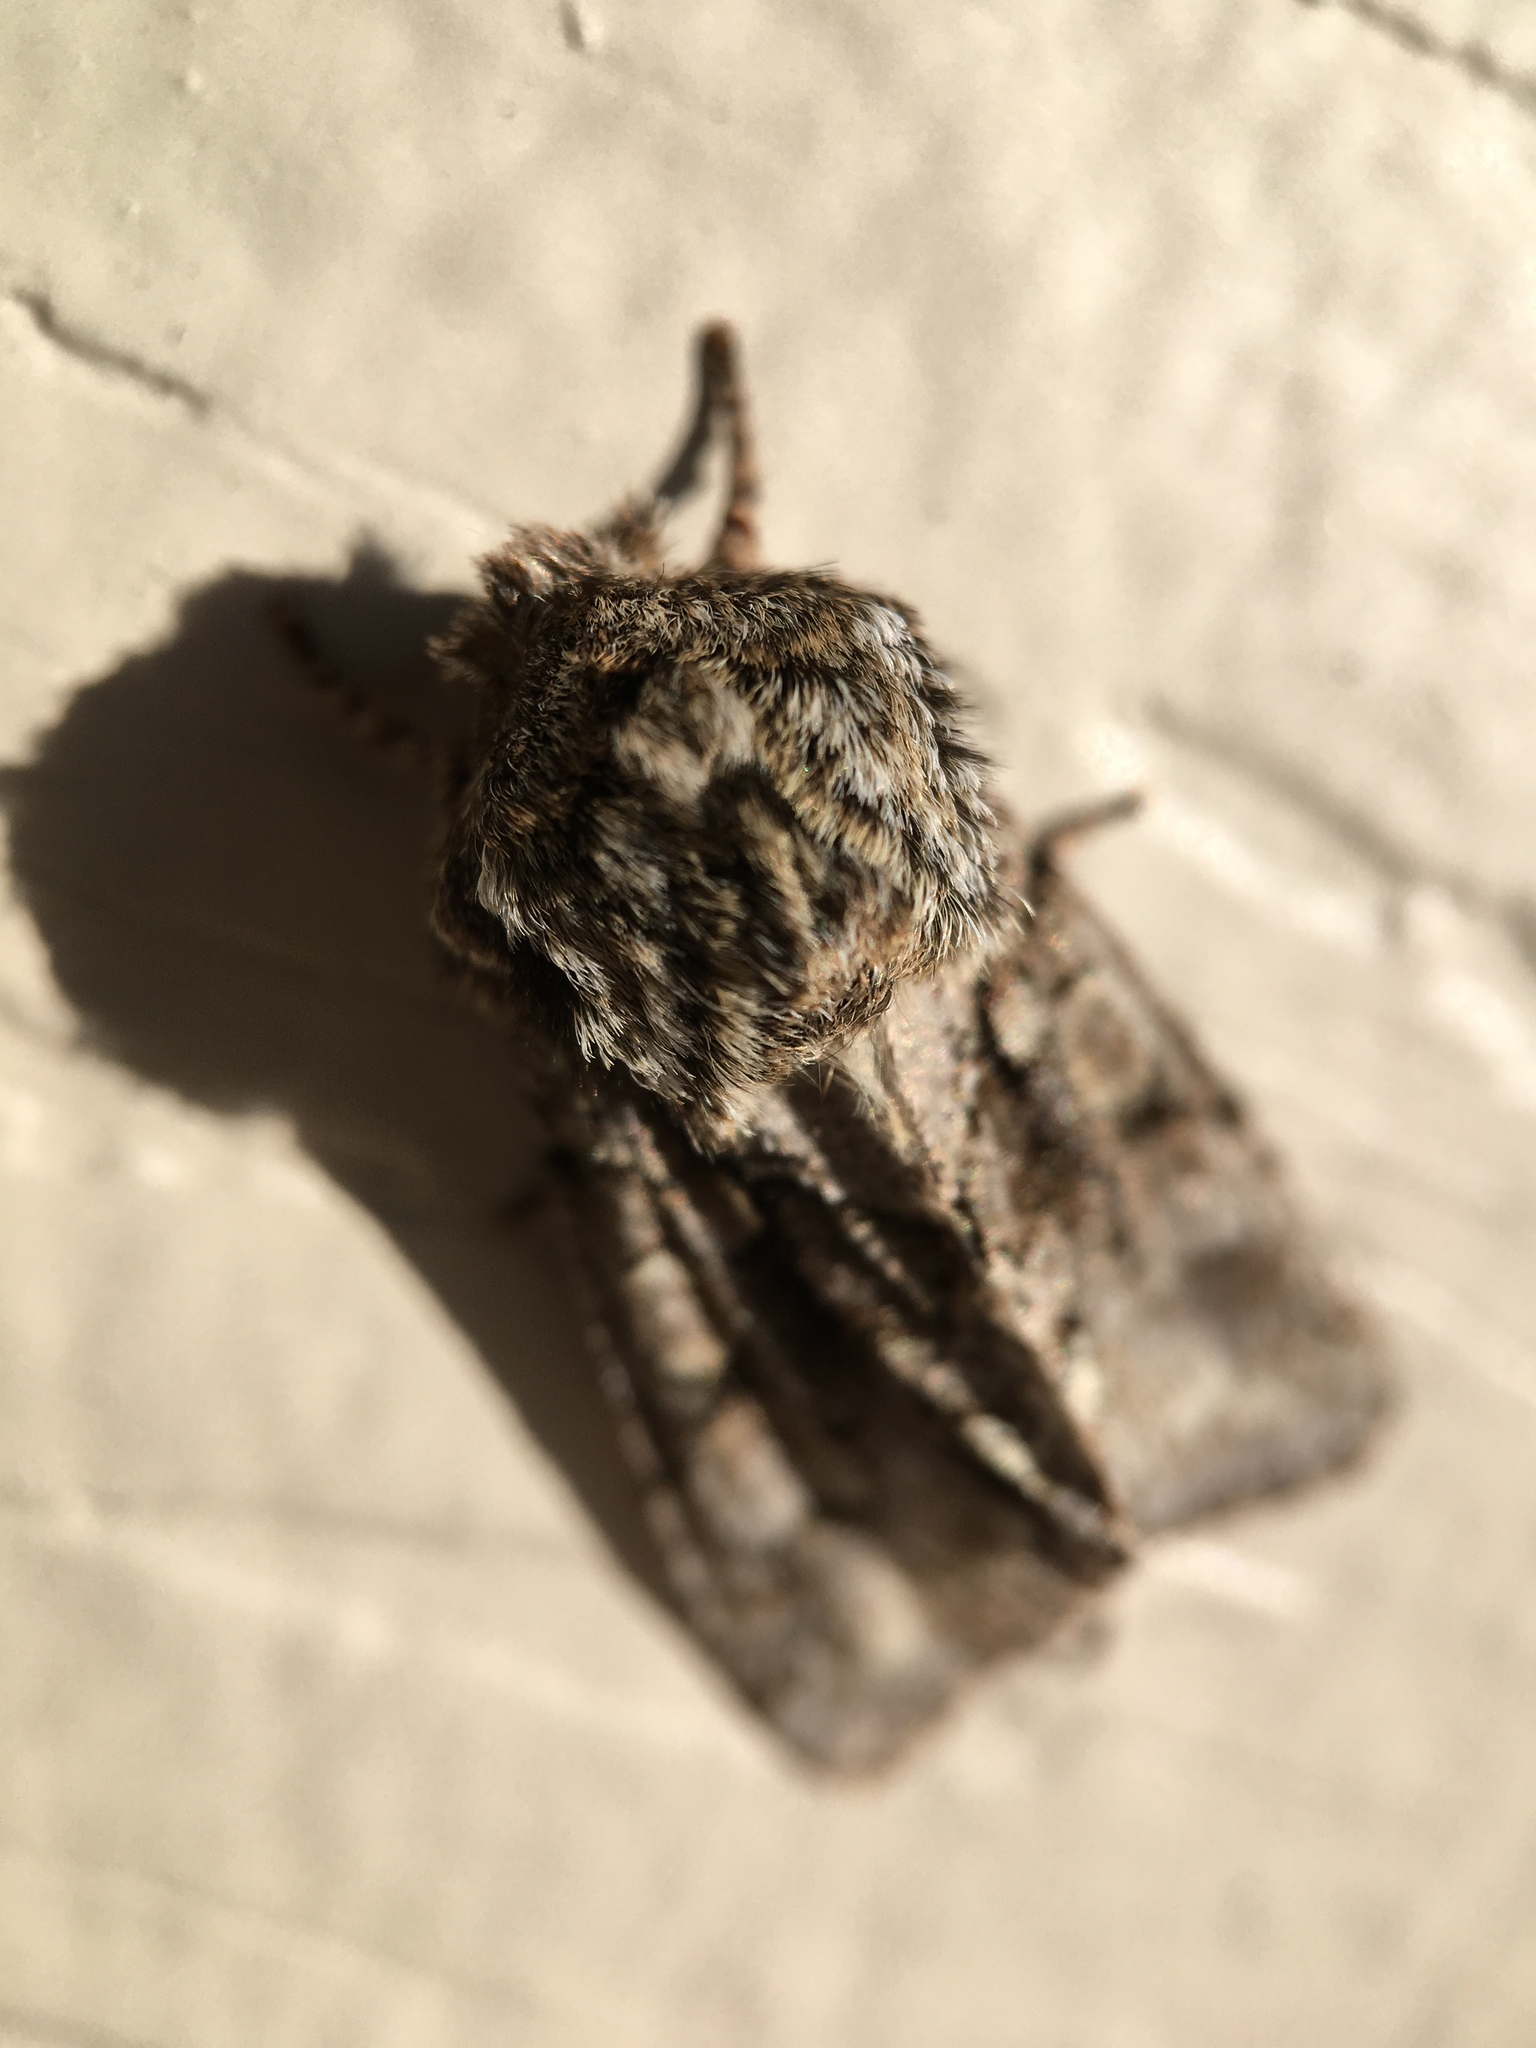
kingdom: Animalia
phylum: Arthropoda
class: Insecta
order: Lepidoptera
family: Noctuidae
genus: Psaphida
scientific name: Psaphida resumens
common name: Figure-eight sallow
